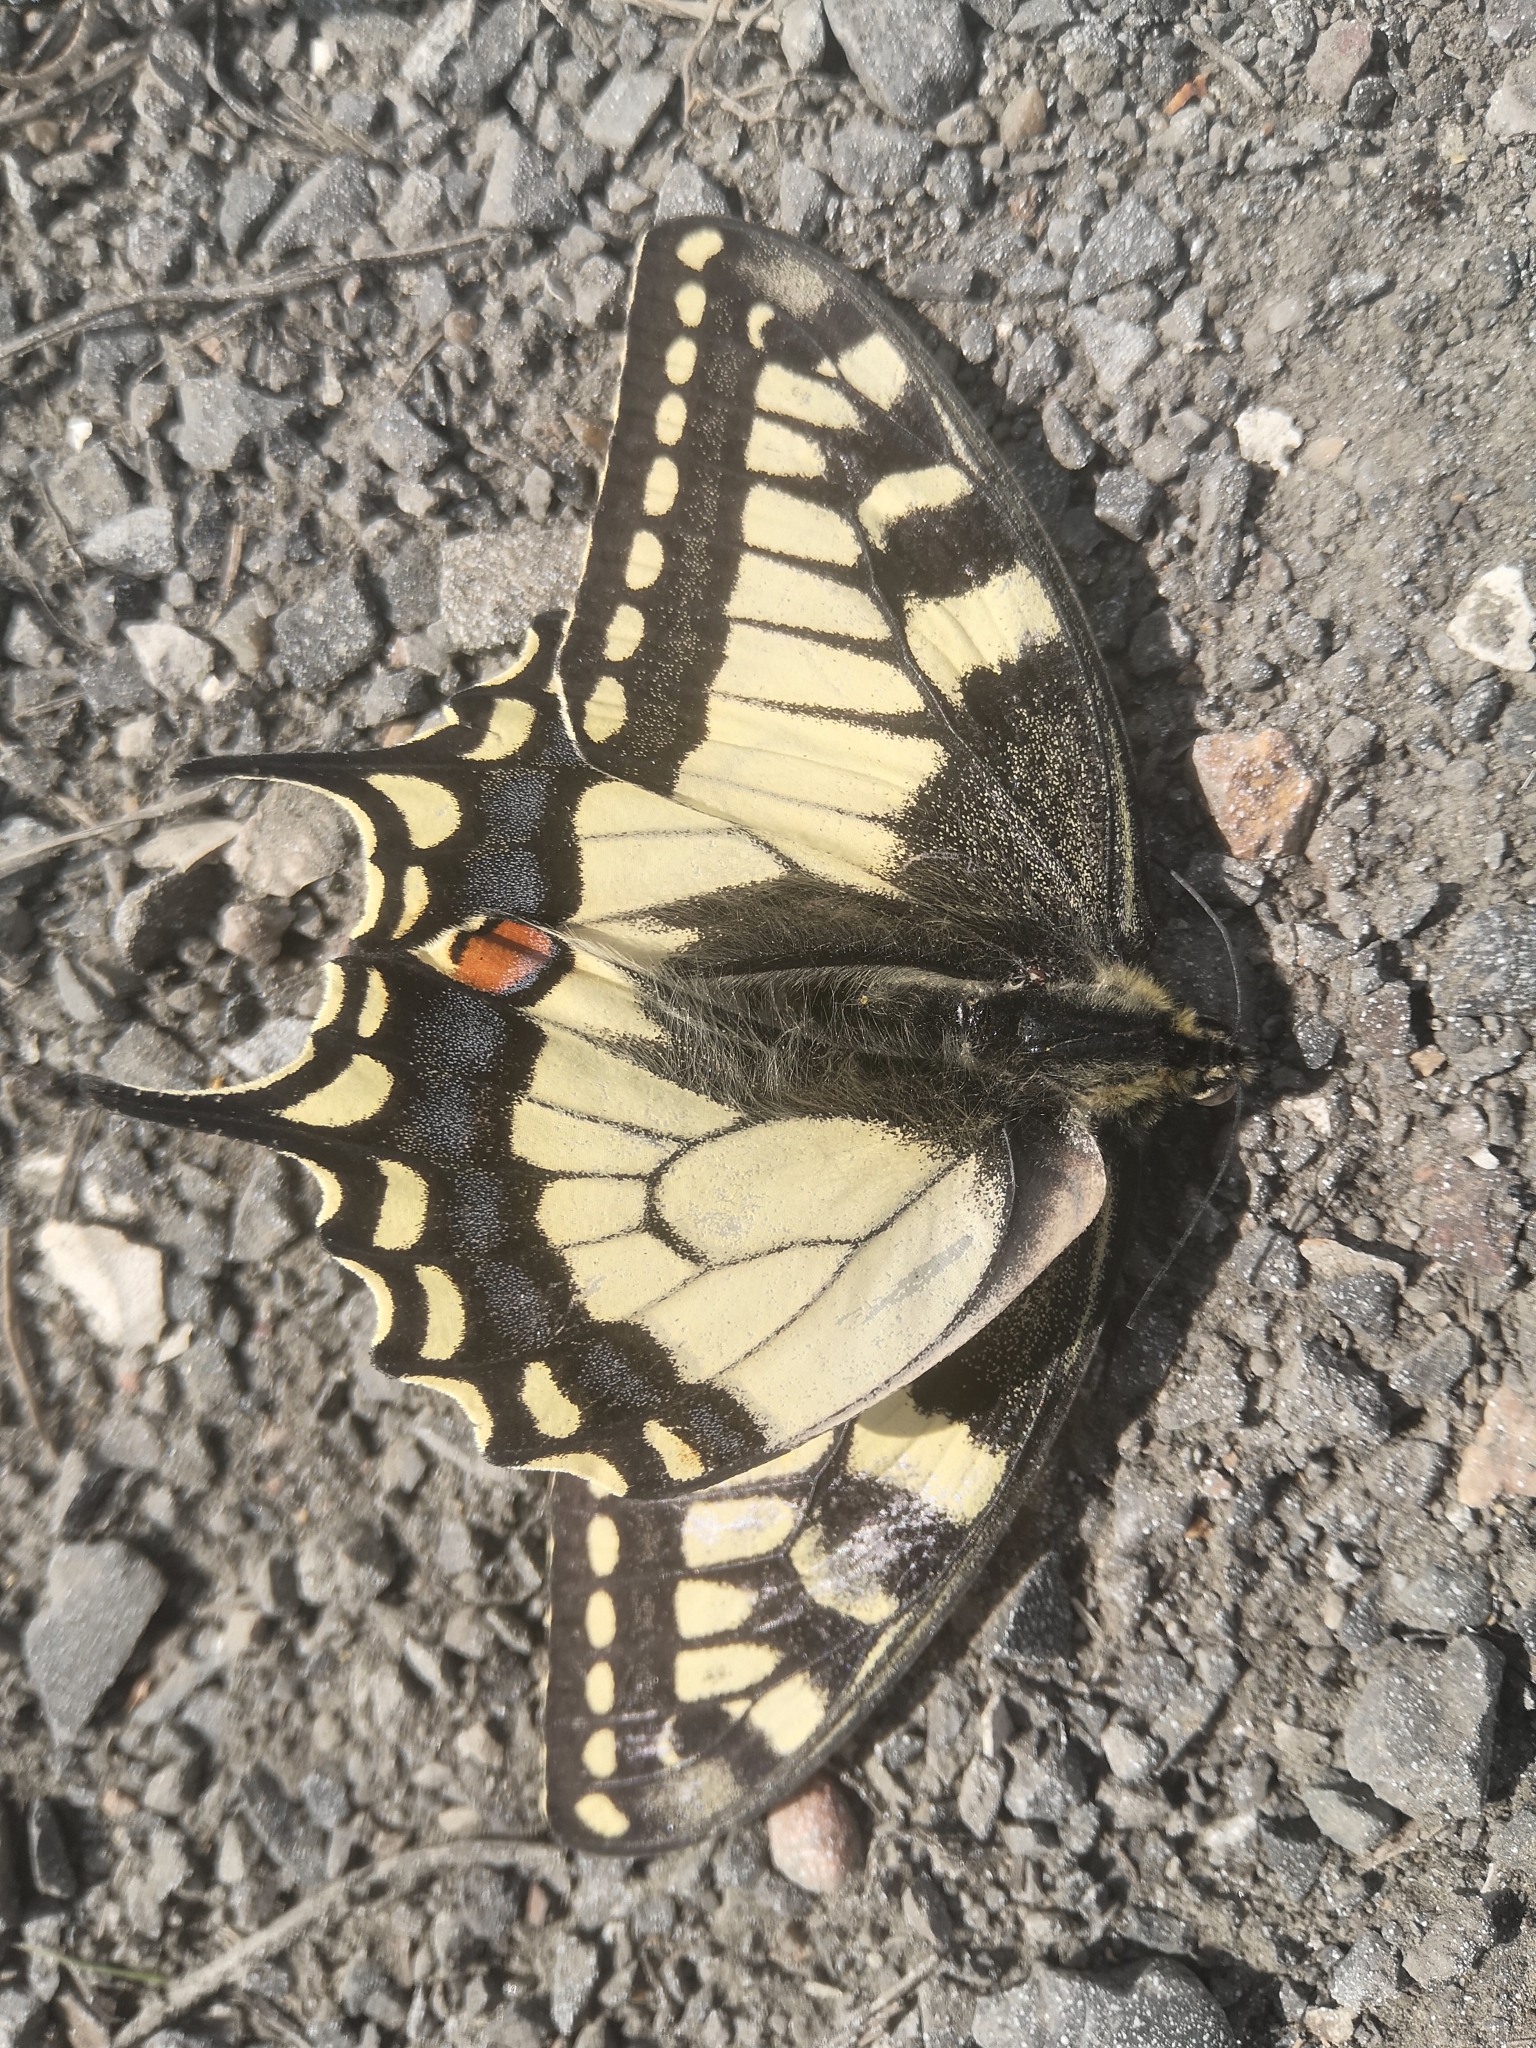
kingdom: Animalia
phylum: Arthropoda
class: Insecta
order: Lepidoptera
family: Papilionidae
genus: Papilio
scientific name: Papilio machaon
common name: Swallowtail
